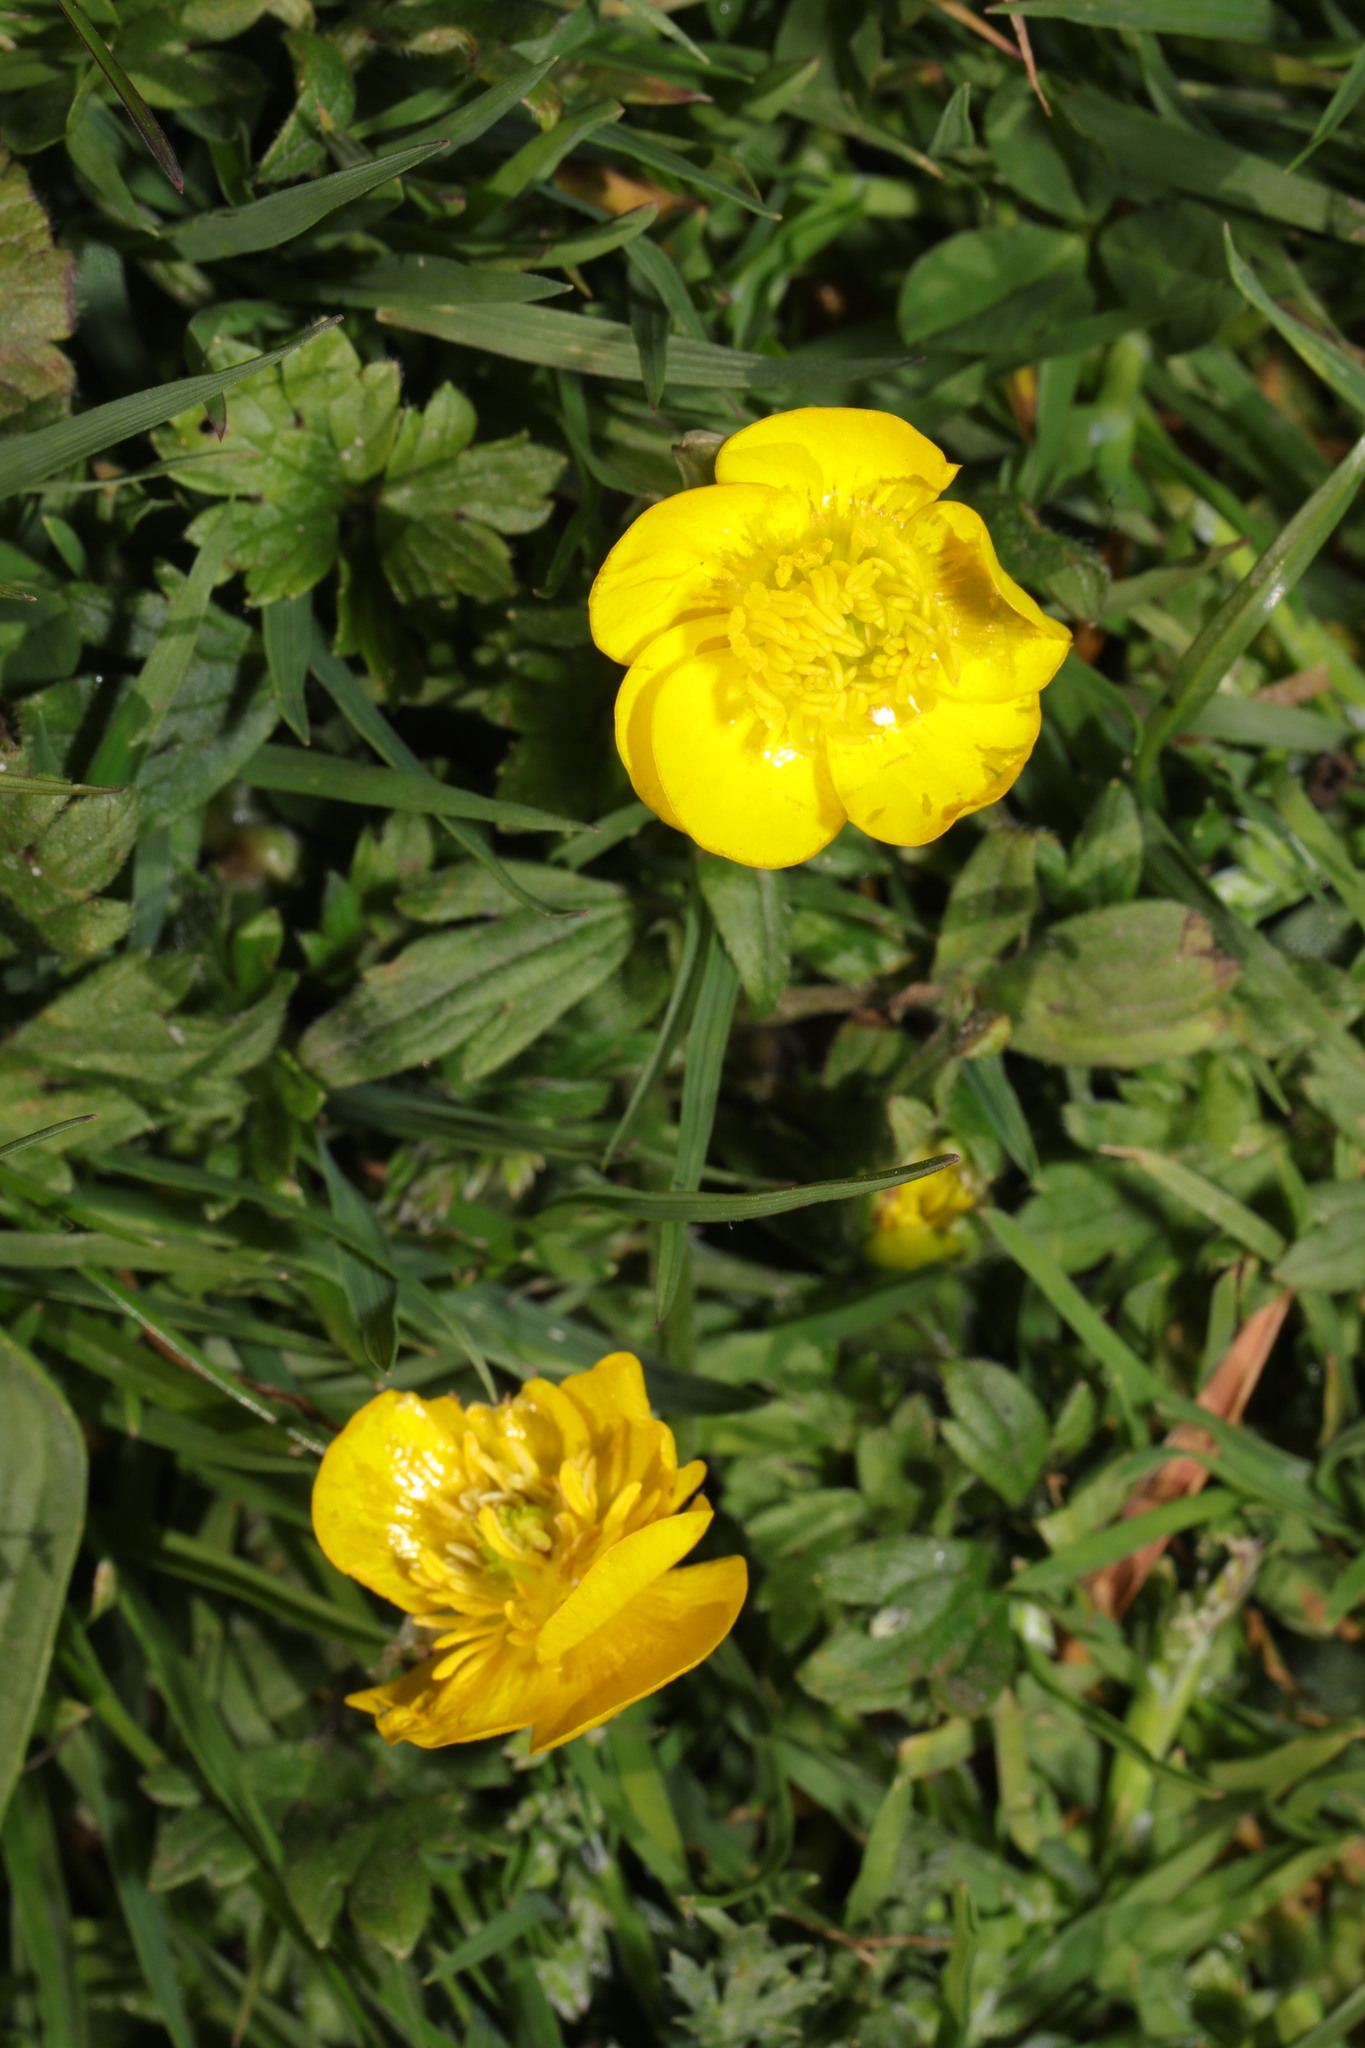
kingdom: Plantae
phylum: Tracheophyta
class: Magnoliopsida
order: Ranunculales
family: Ranunculaceae
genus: Ranunculus
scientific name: Ranunculus repens
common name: Creeping buttercup
